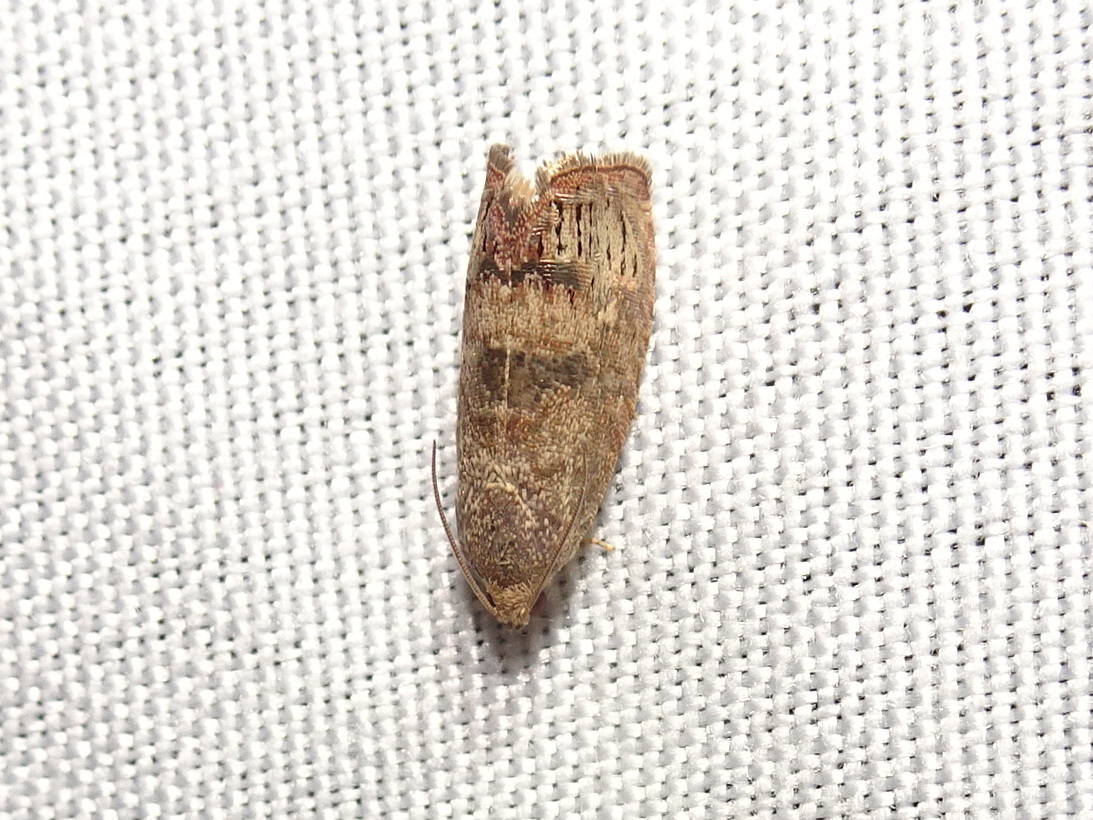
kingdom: Animalia
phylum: Arthropoda
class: Insecta
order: Lepidoptera
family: Tortricidae
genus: Cydia
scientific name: Cydia latiferreana
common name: Filbertworm moth
